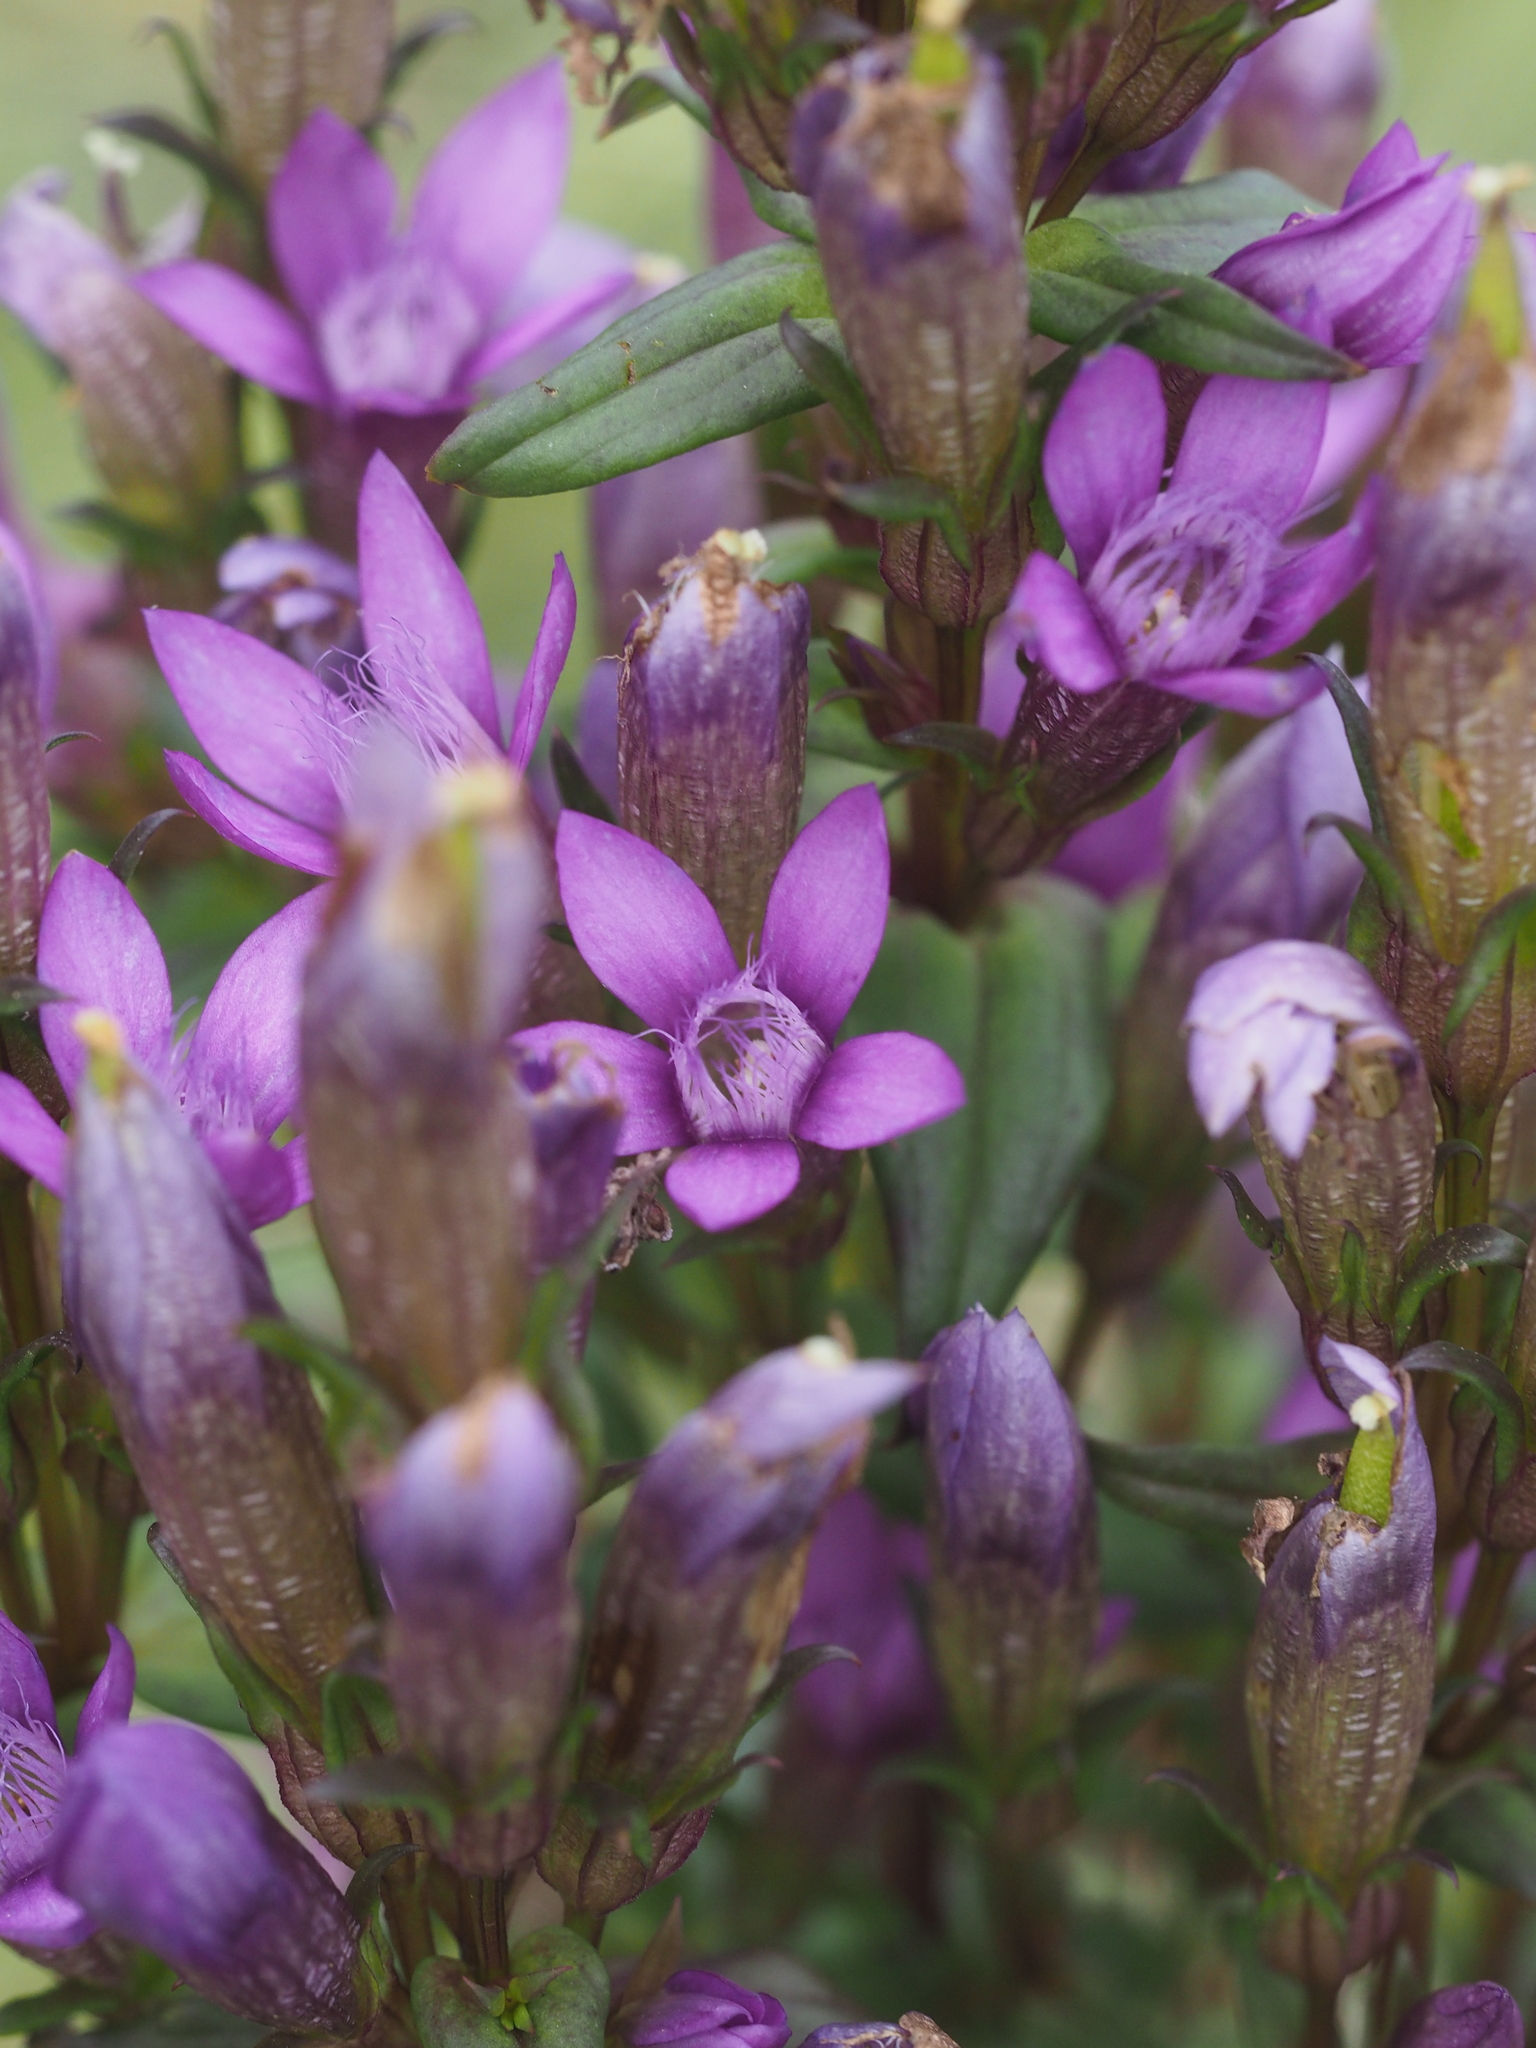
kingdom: Plantae
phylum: Tracheophyta
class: Magnoliopsida
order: Gentianales
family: Gentianaceae
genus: Gentianella
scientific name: Gentianella germanica
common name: Chiltern-gentian
